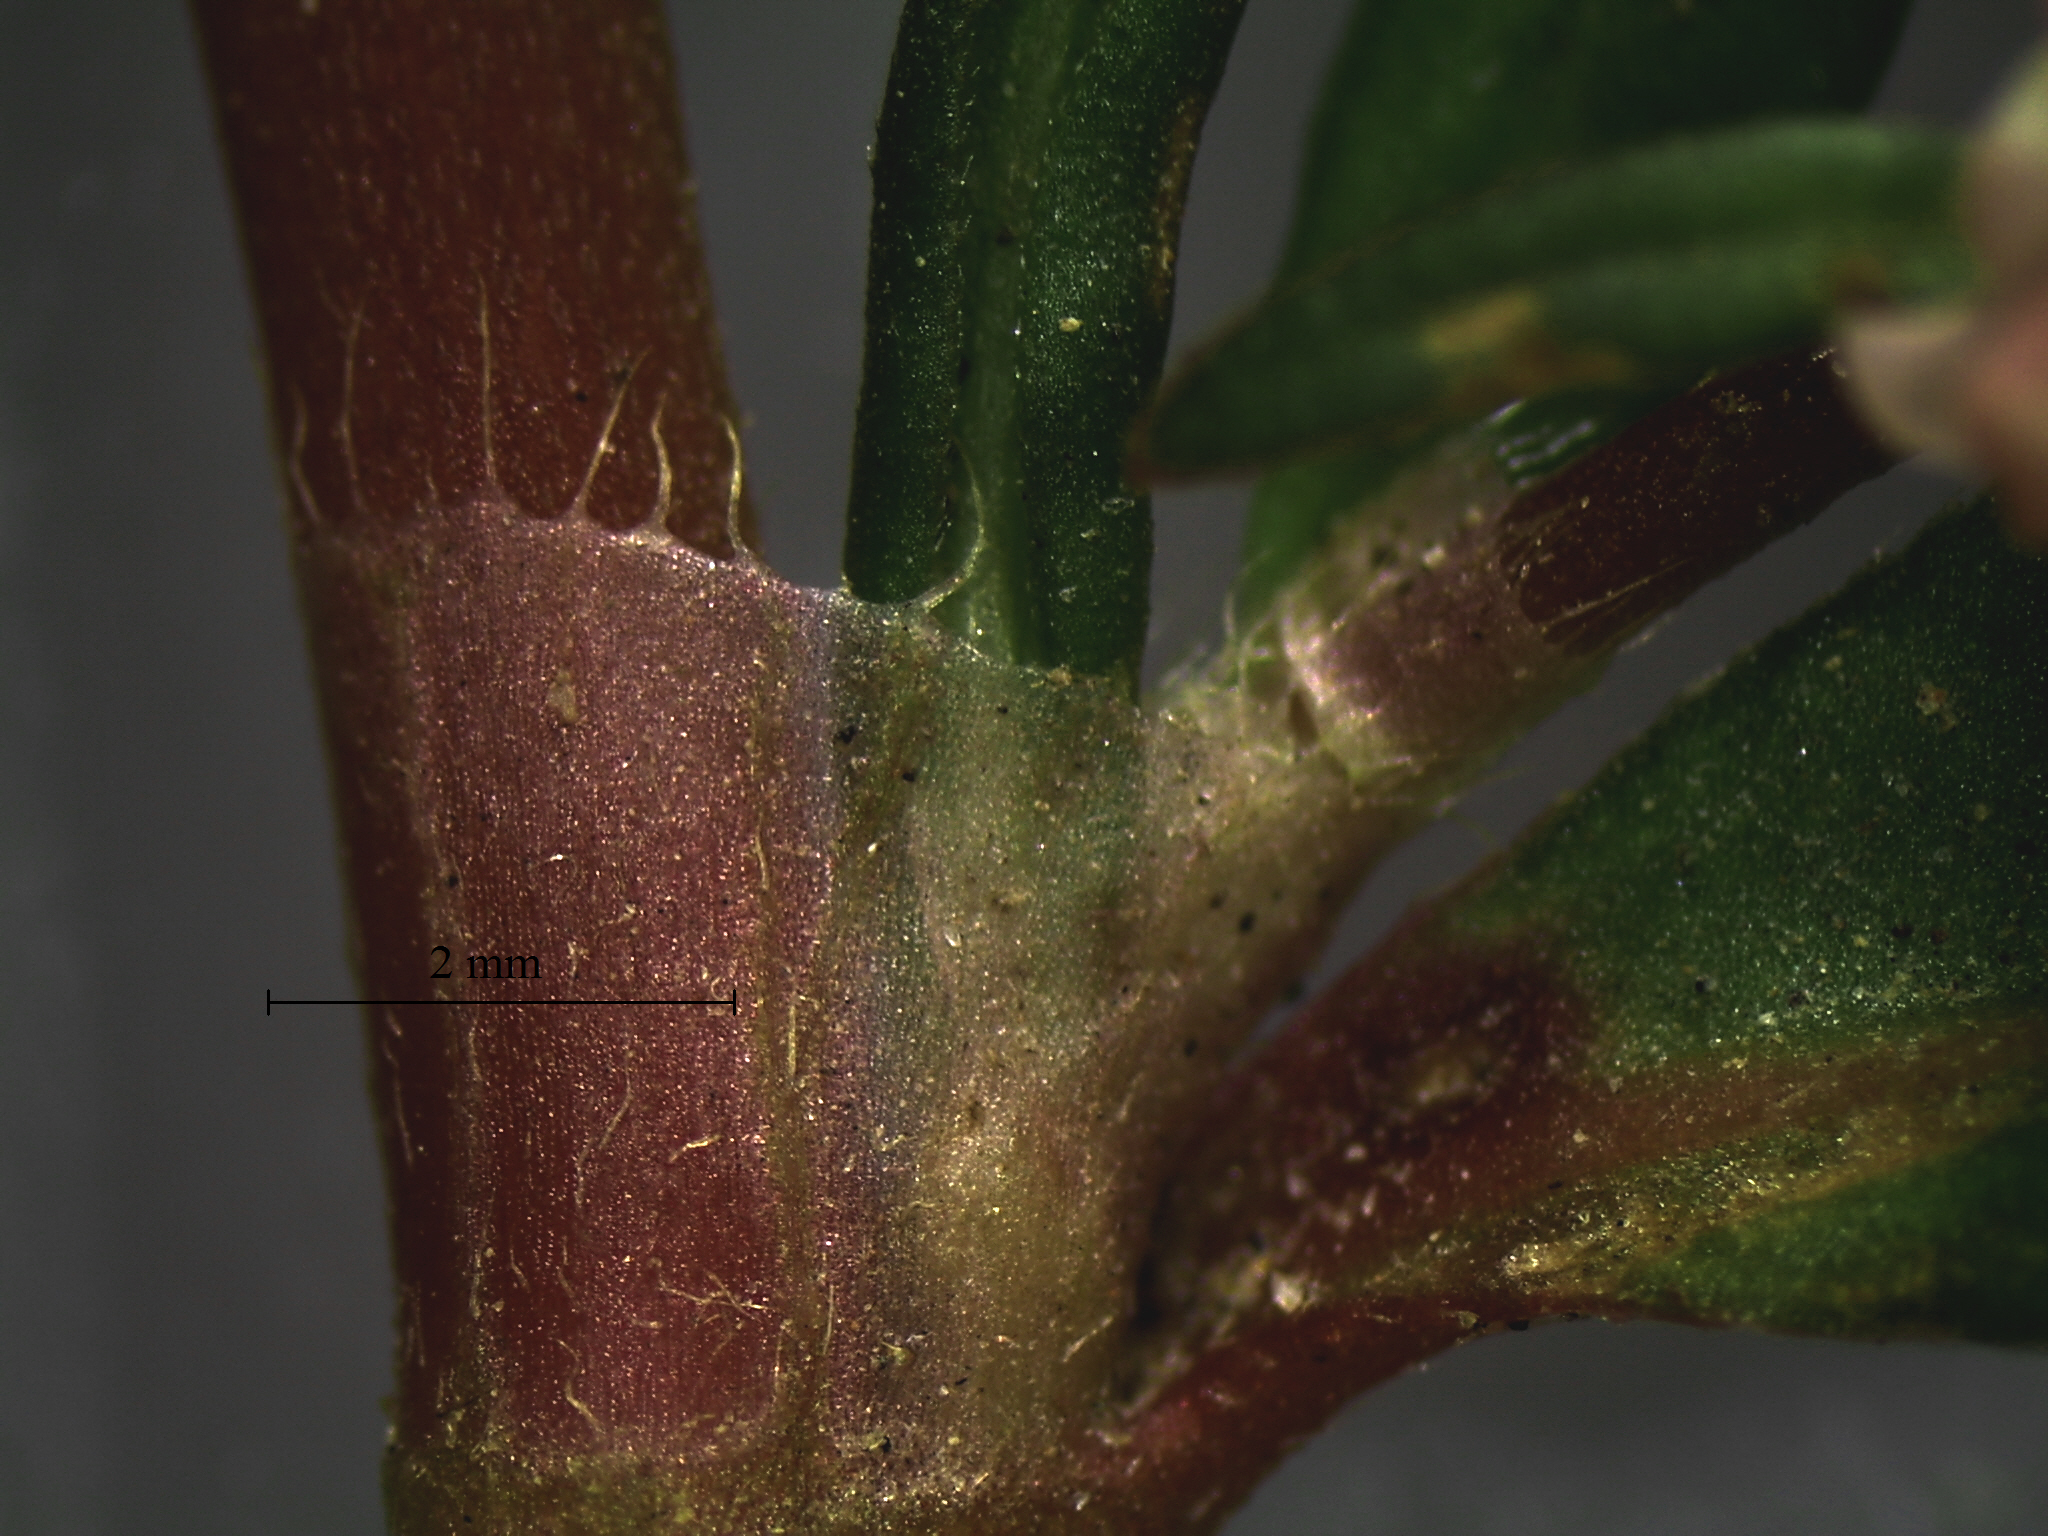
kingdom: Plantae
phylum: Tracheophyta
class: Magnoliopsida
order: Caryophyllales
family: Polygonaceae
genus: Persicaria
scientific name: Persicaria maculosa
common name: Redshank
